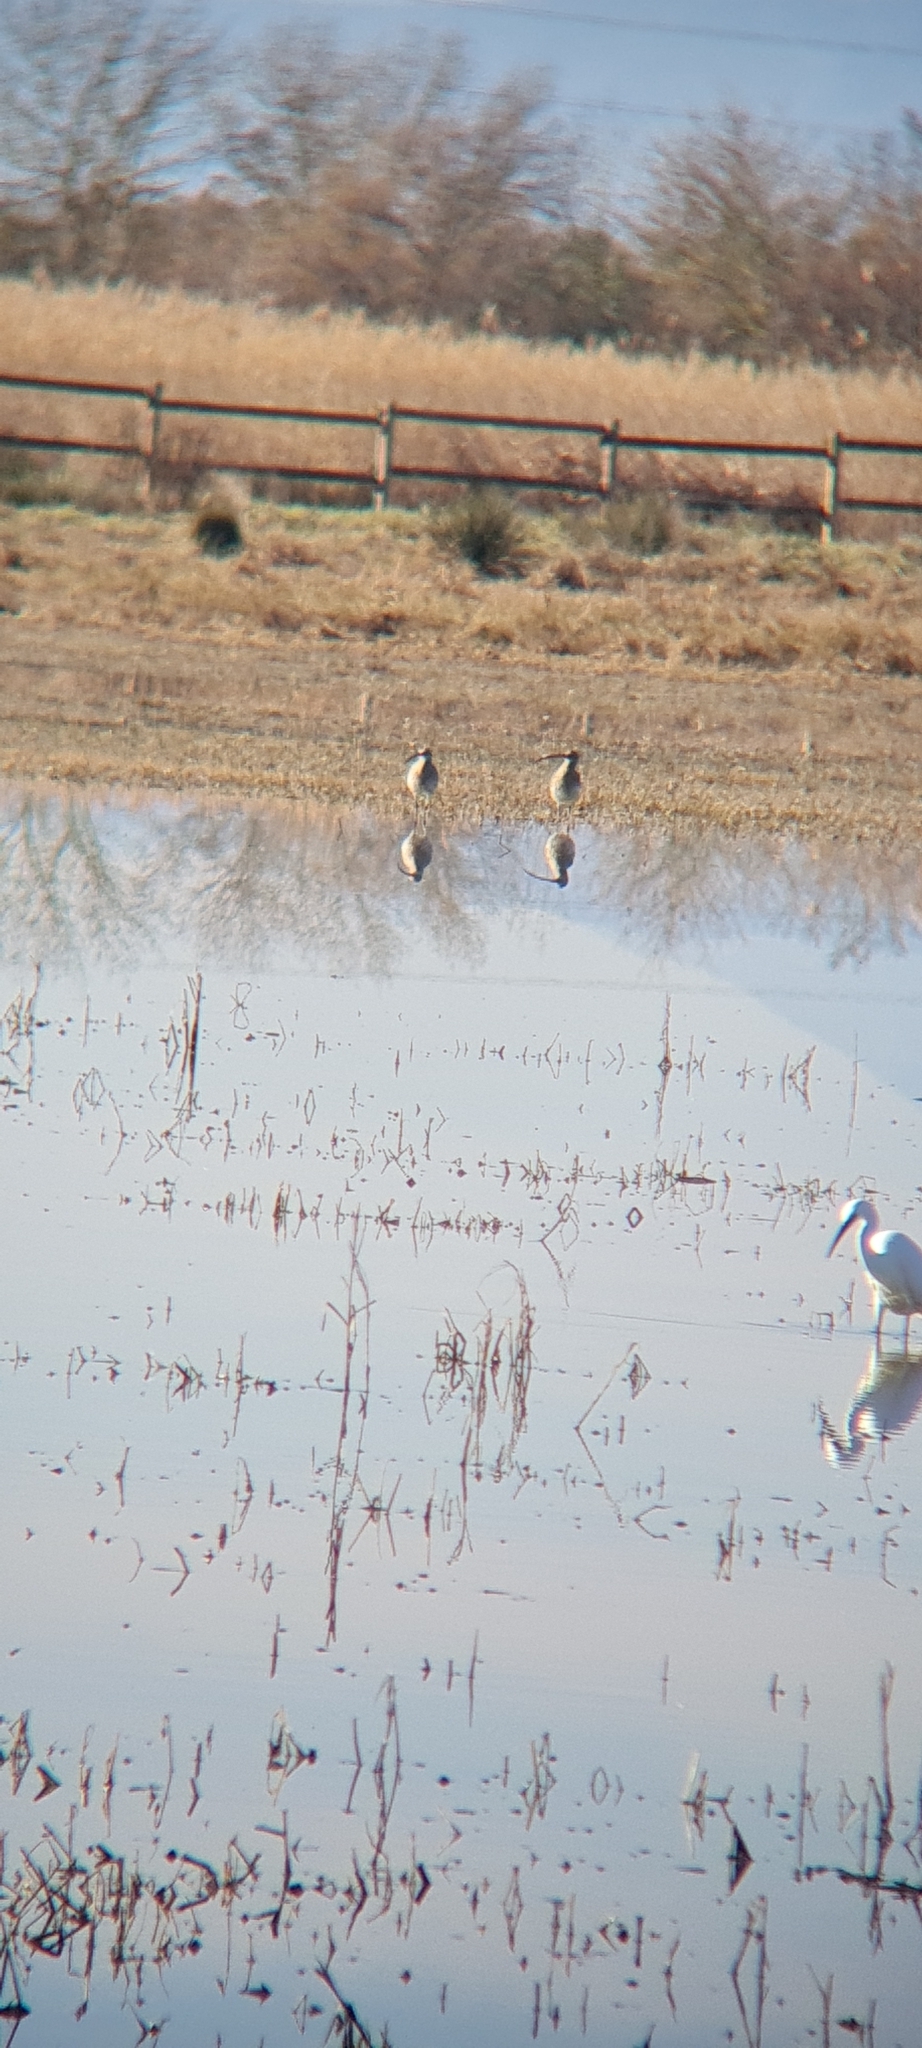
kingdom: Animalia
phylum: Chordata
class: Aves
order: Charadriiformes
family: Scolopacidae
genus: Numenius
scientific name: Numenius arquata
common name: Eurasian curlew
